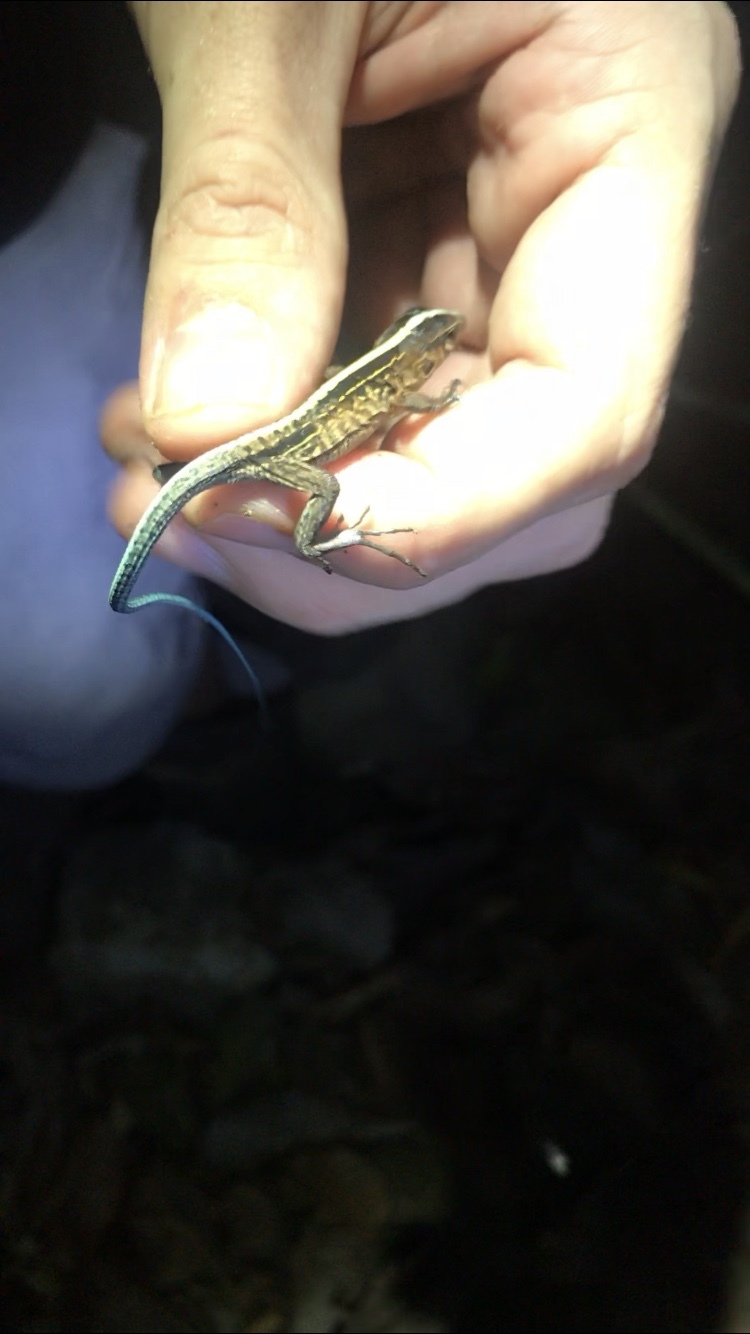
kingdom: Animalia
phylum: Chordata
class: Squamata
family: Teiidae
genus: Holcosus
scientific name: Holcosus festivus
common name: Middle american ameiva
